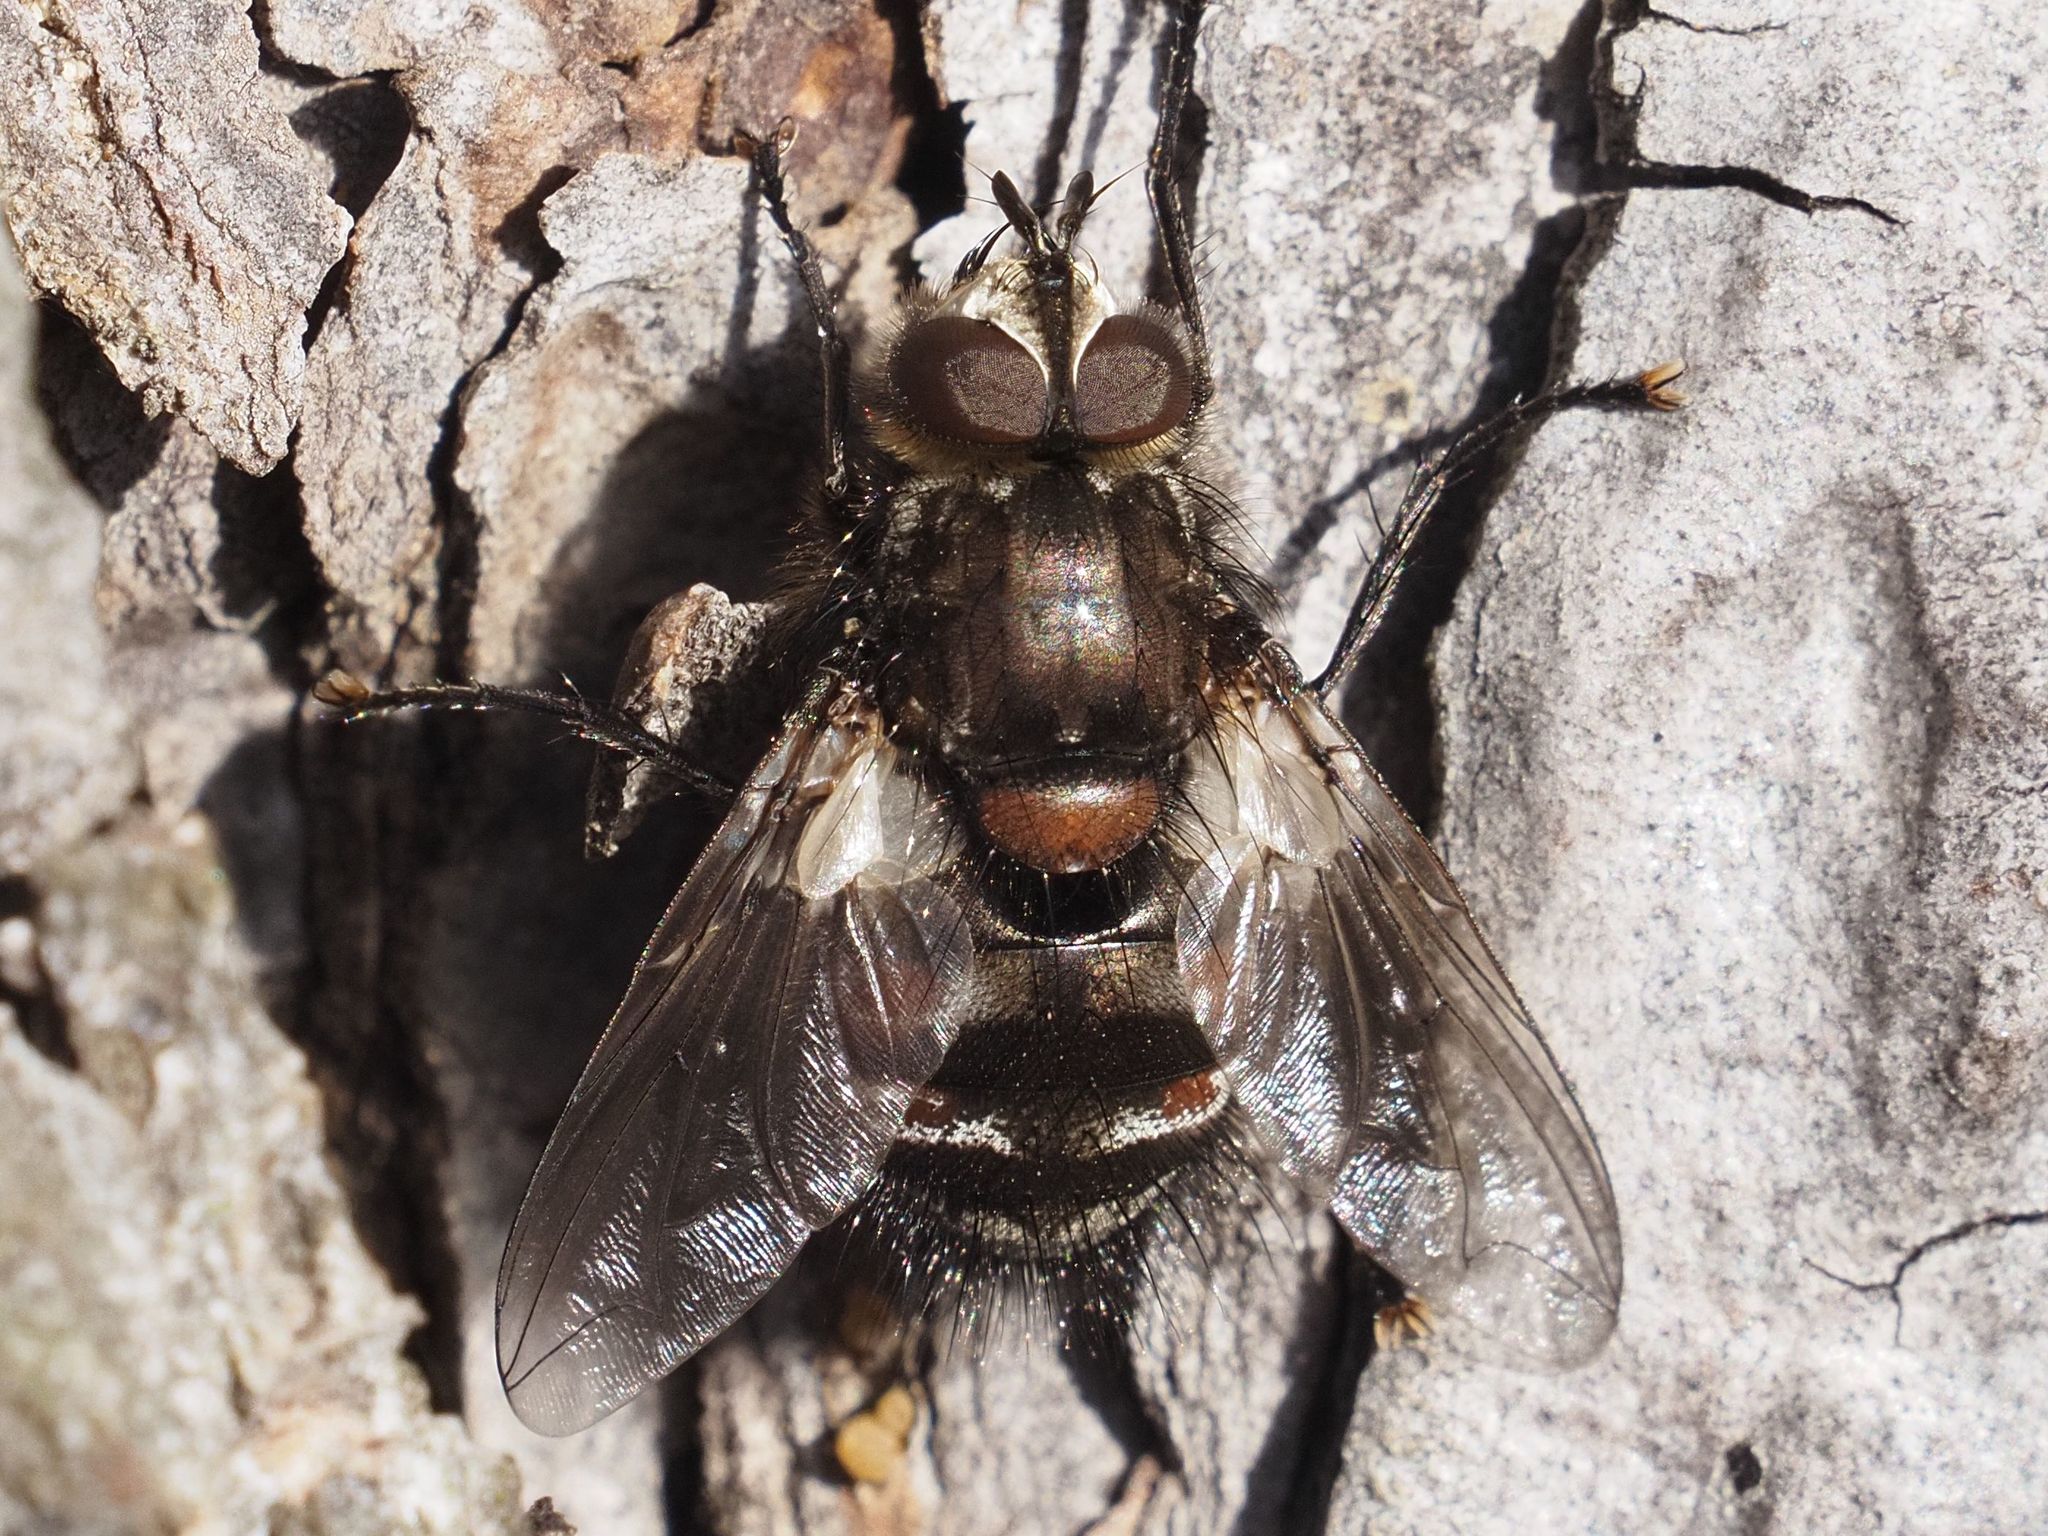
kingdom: Animalia
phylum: Arthropoda
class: Insecta
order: Diptera
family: Tachinidae
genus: Panzeria
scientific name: Panzeria puparum
